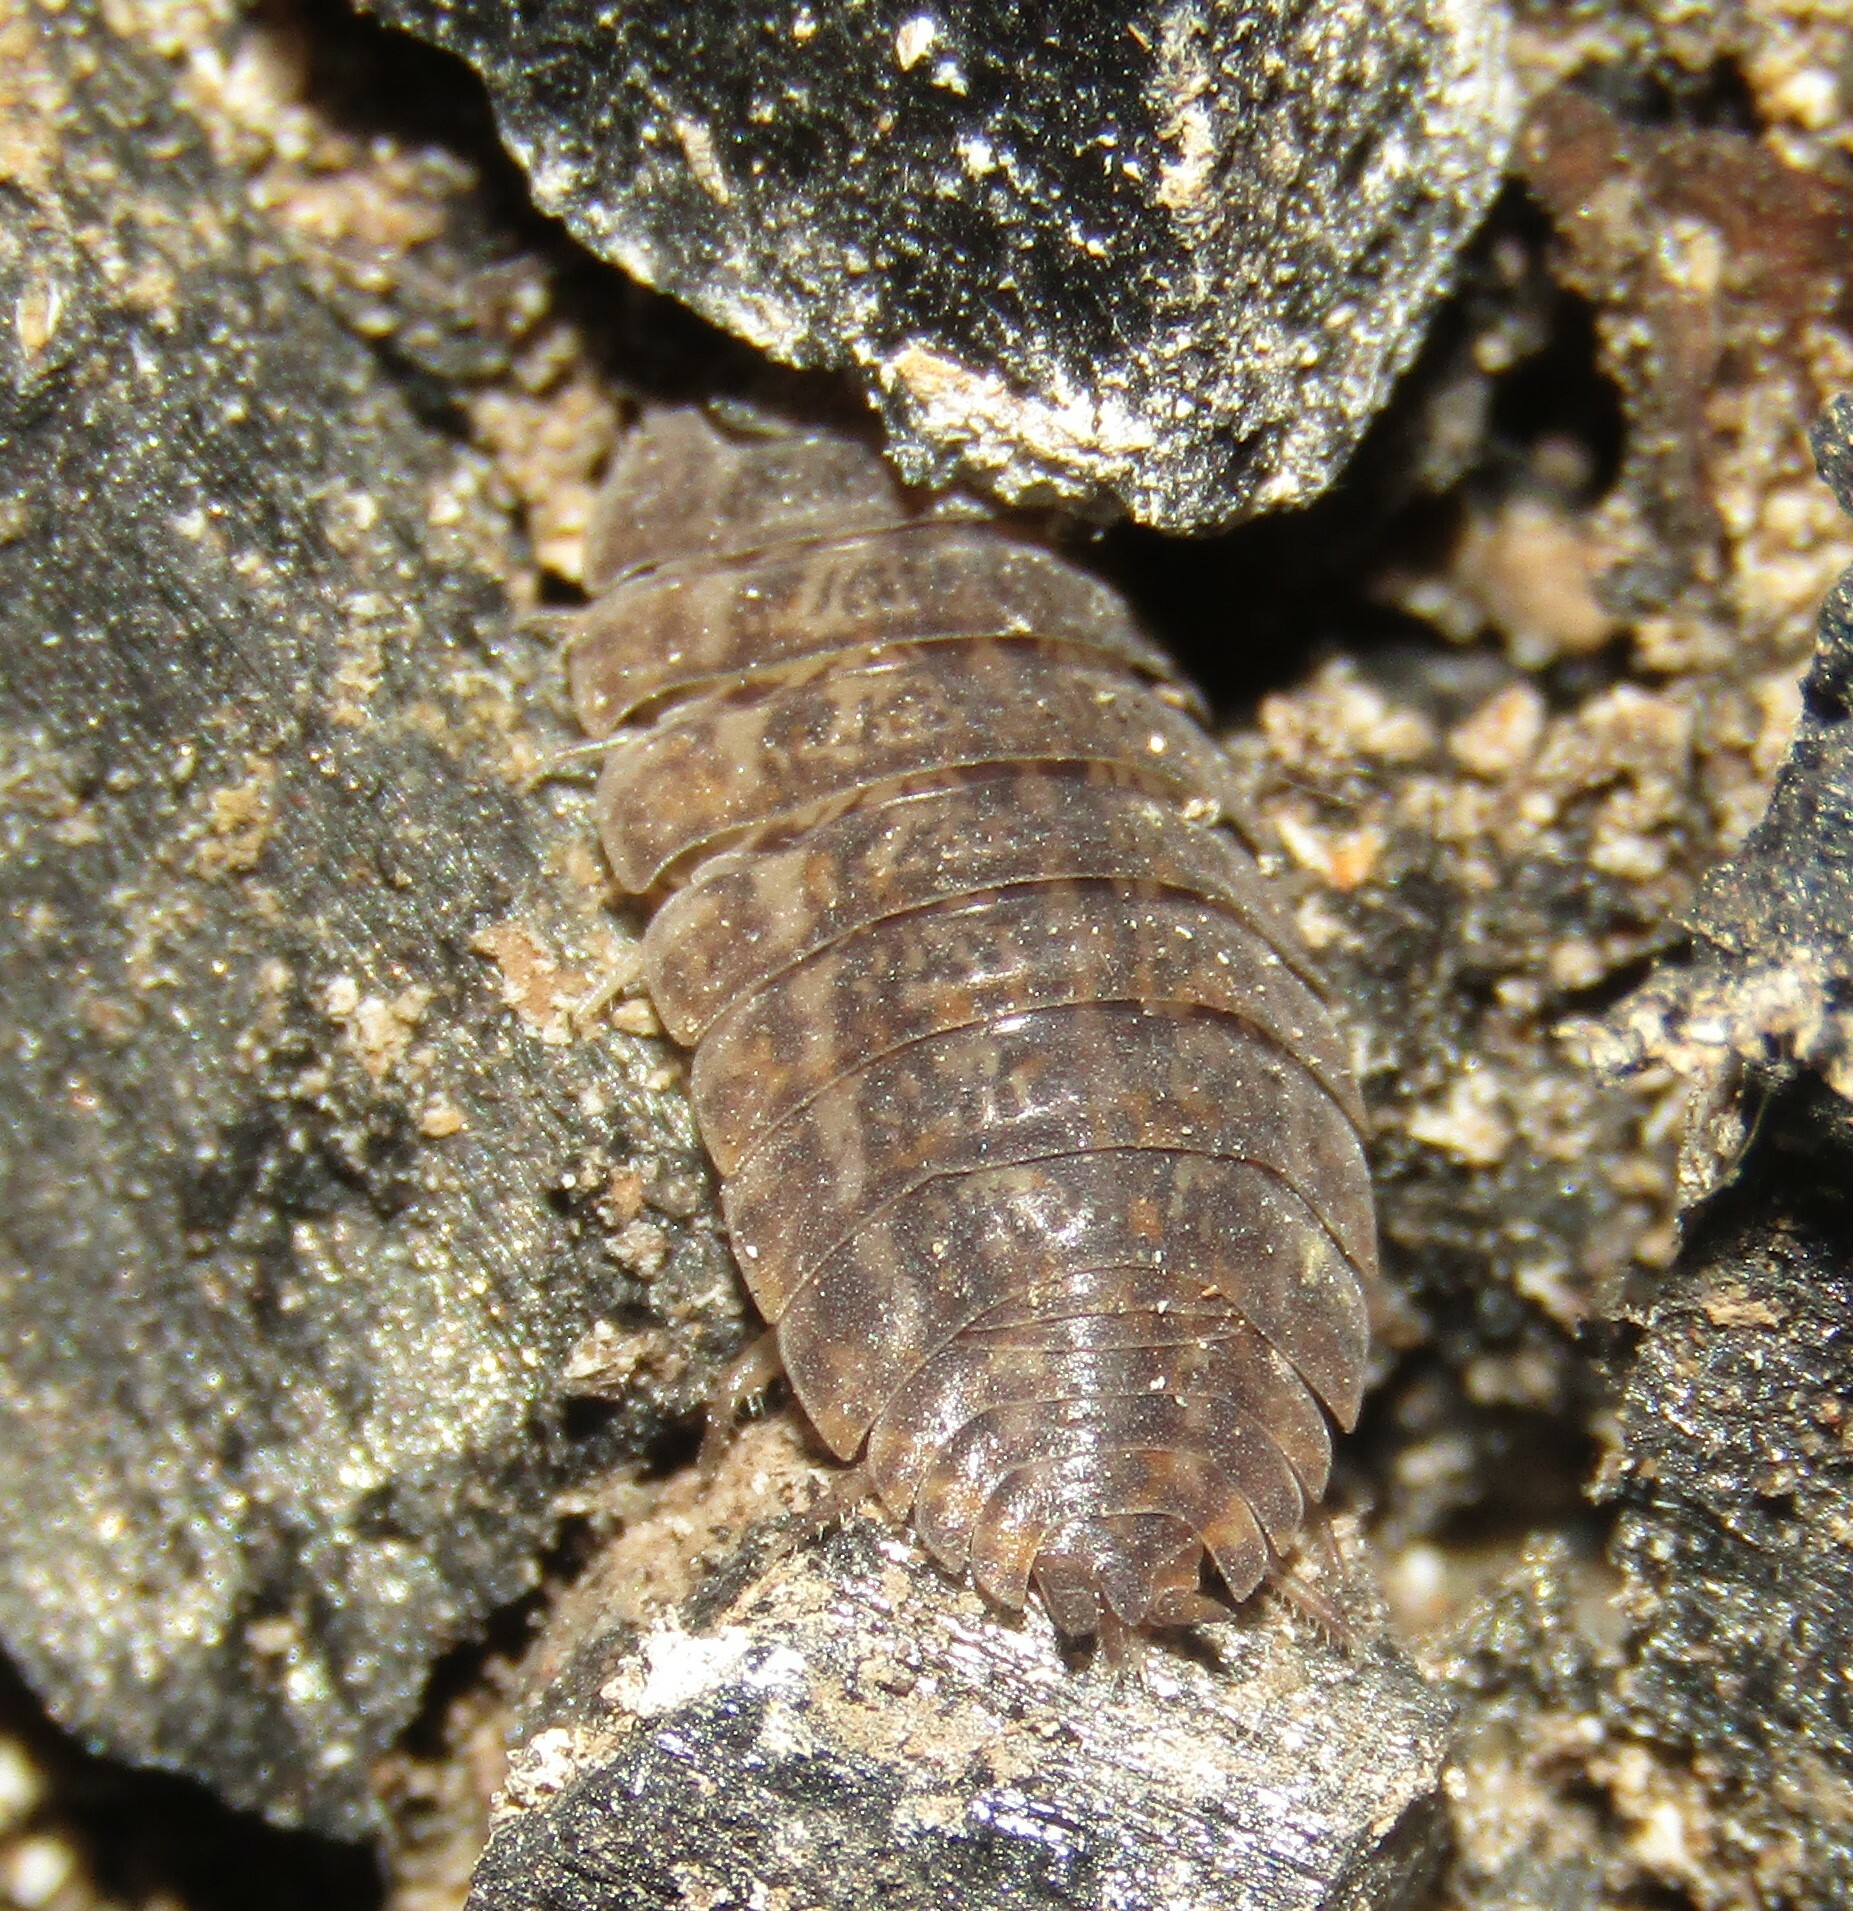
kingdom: Animalia
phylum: Arthropoda
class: Malacostraca
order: Isopoda
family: Trachelipodidae
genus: Trachelipus
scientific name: Trachelipus rathkii
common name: Isopod
